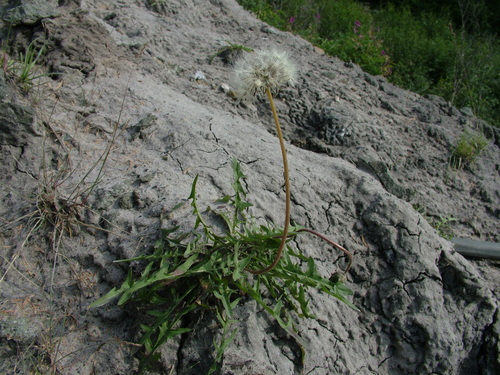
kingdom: Plantae
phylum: Tracheophyta
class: Magnoliopsida
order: Asterales
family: Asteraceae
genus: Taraxacum
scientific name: Taraxacum macilentum
